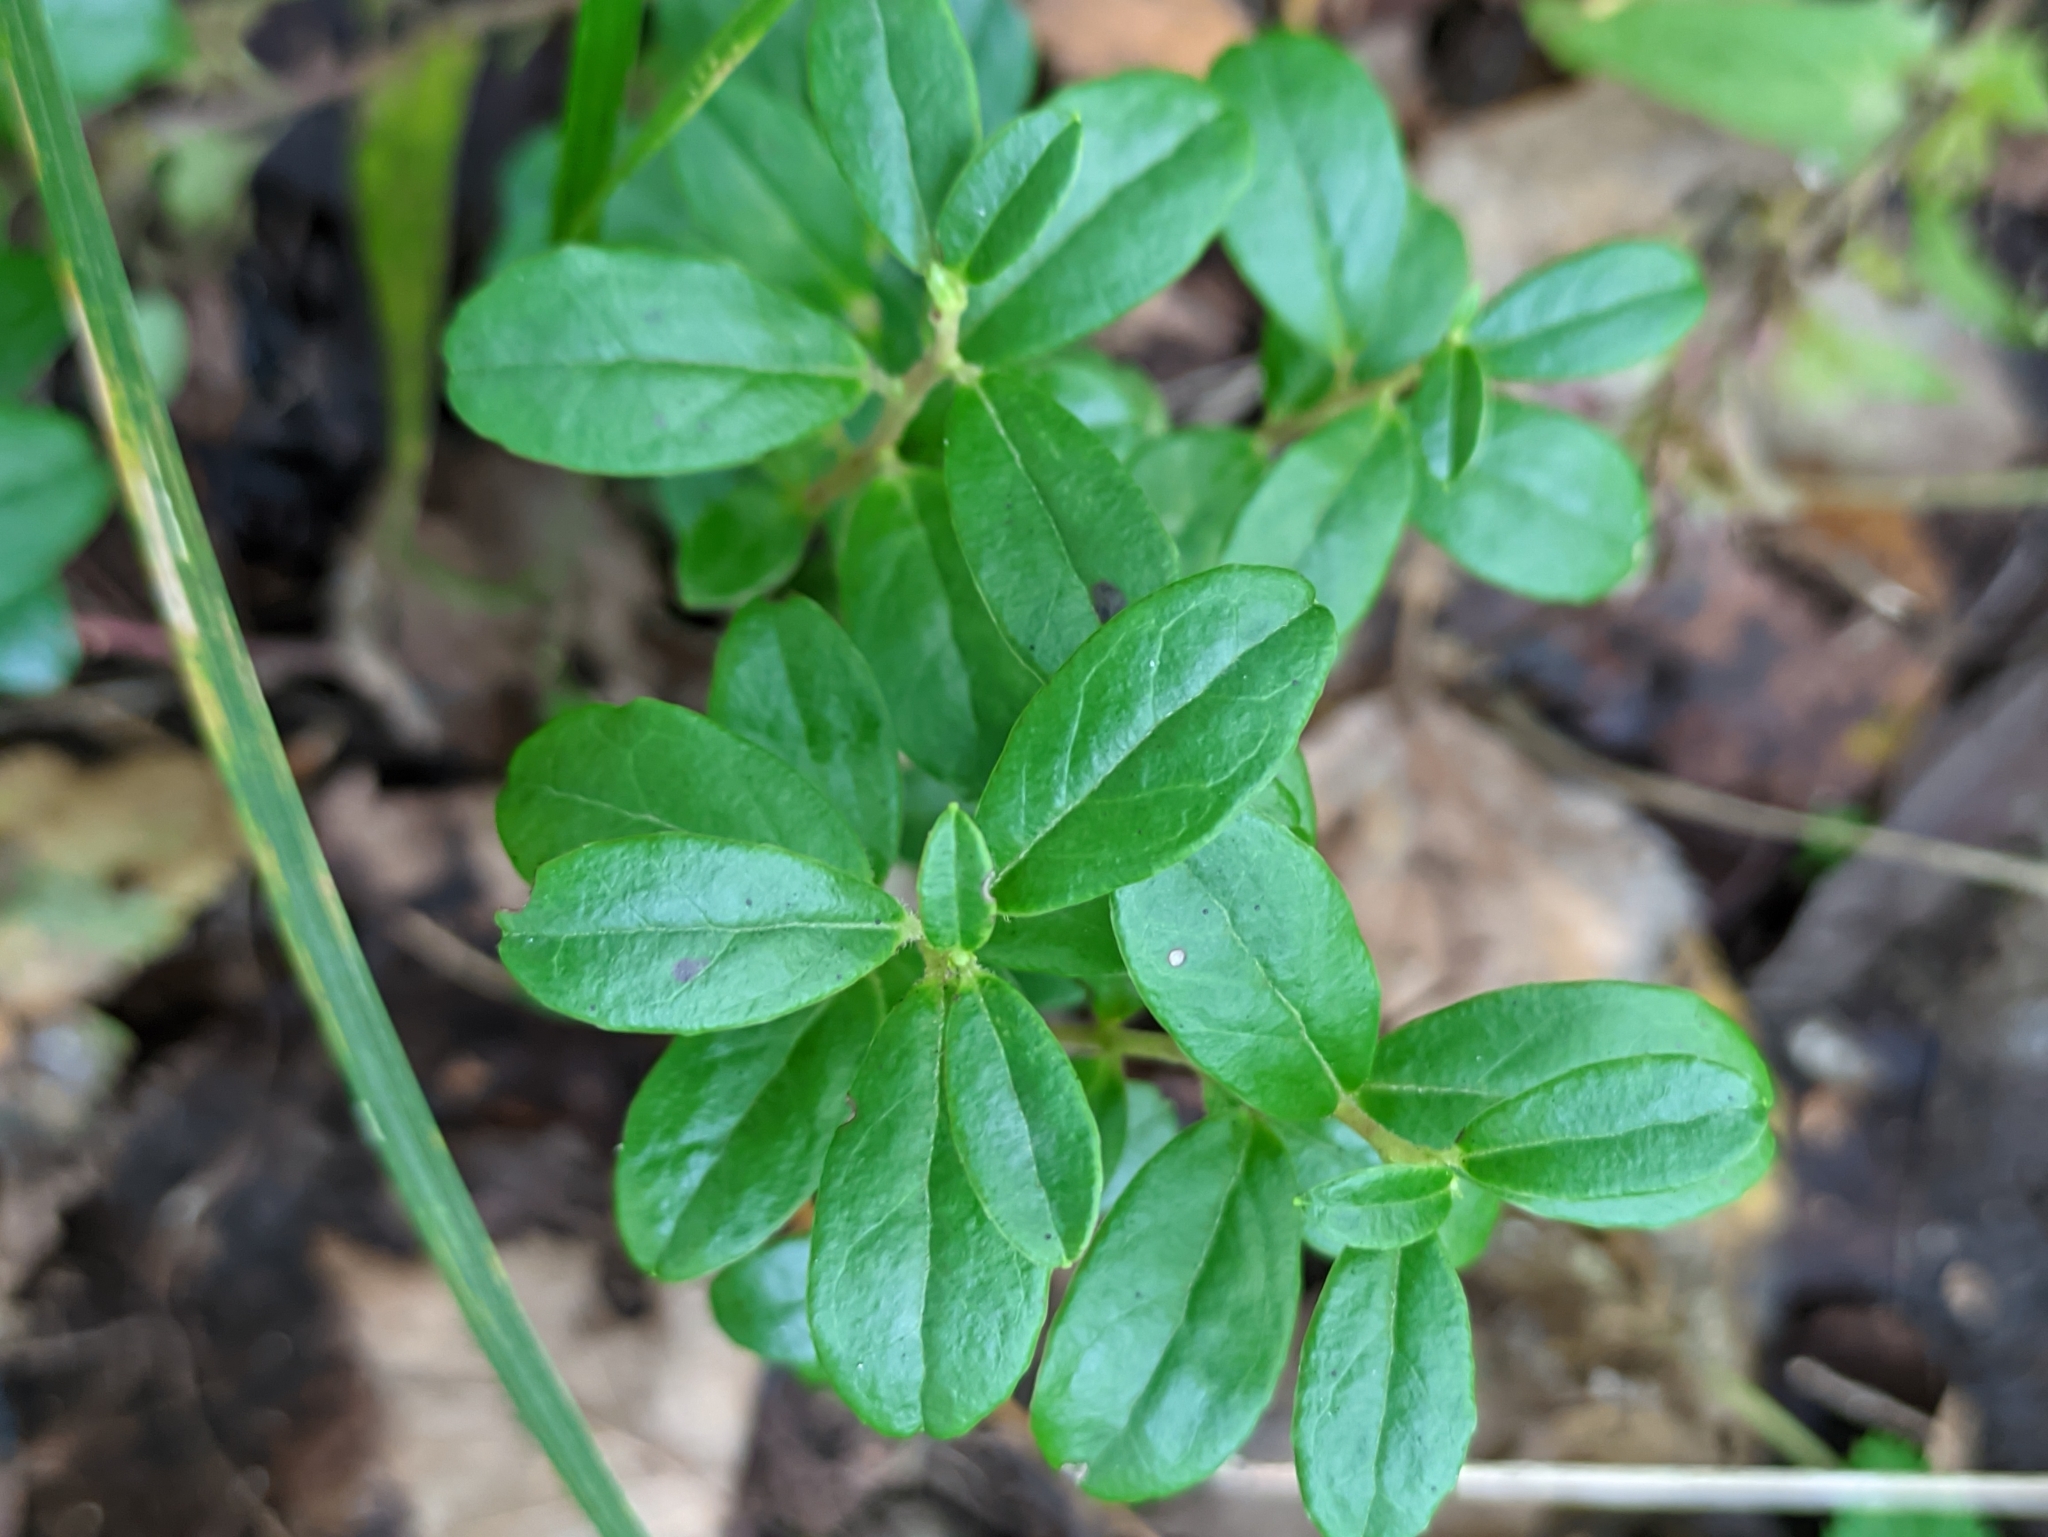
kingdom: Plantae
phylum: Tracheophyta
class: Magnoliopsida
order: Ericales
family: Ericaceae
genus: Vaccinium
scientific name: Vaccinium vitis-idaea
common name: Cowberry
